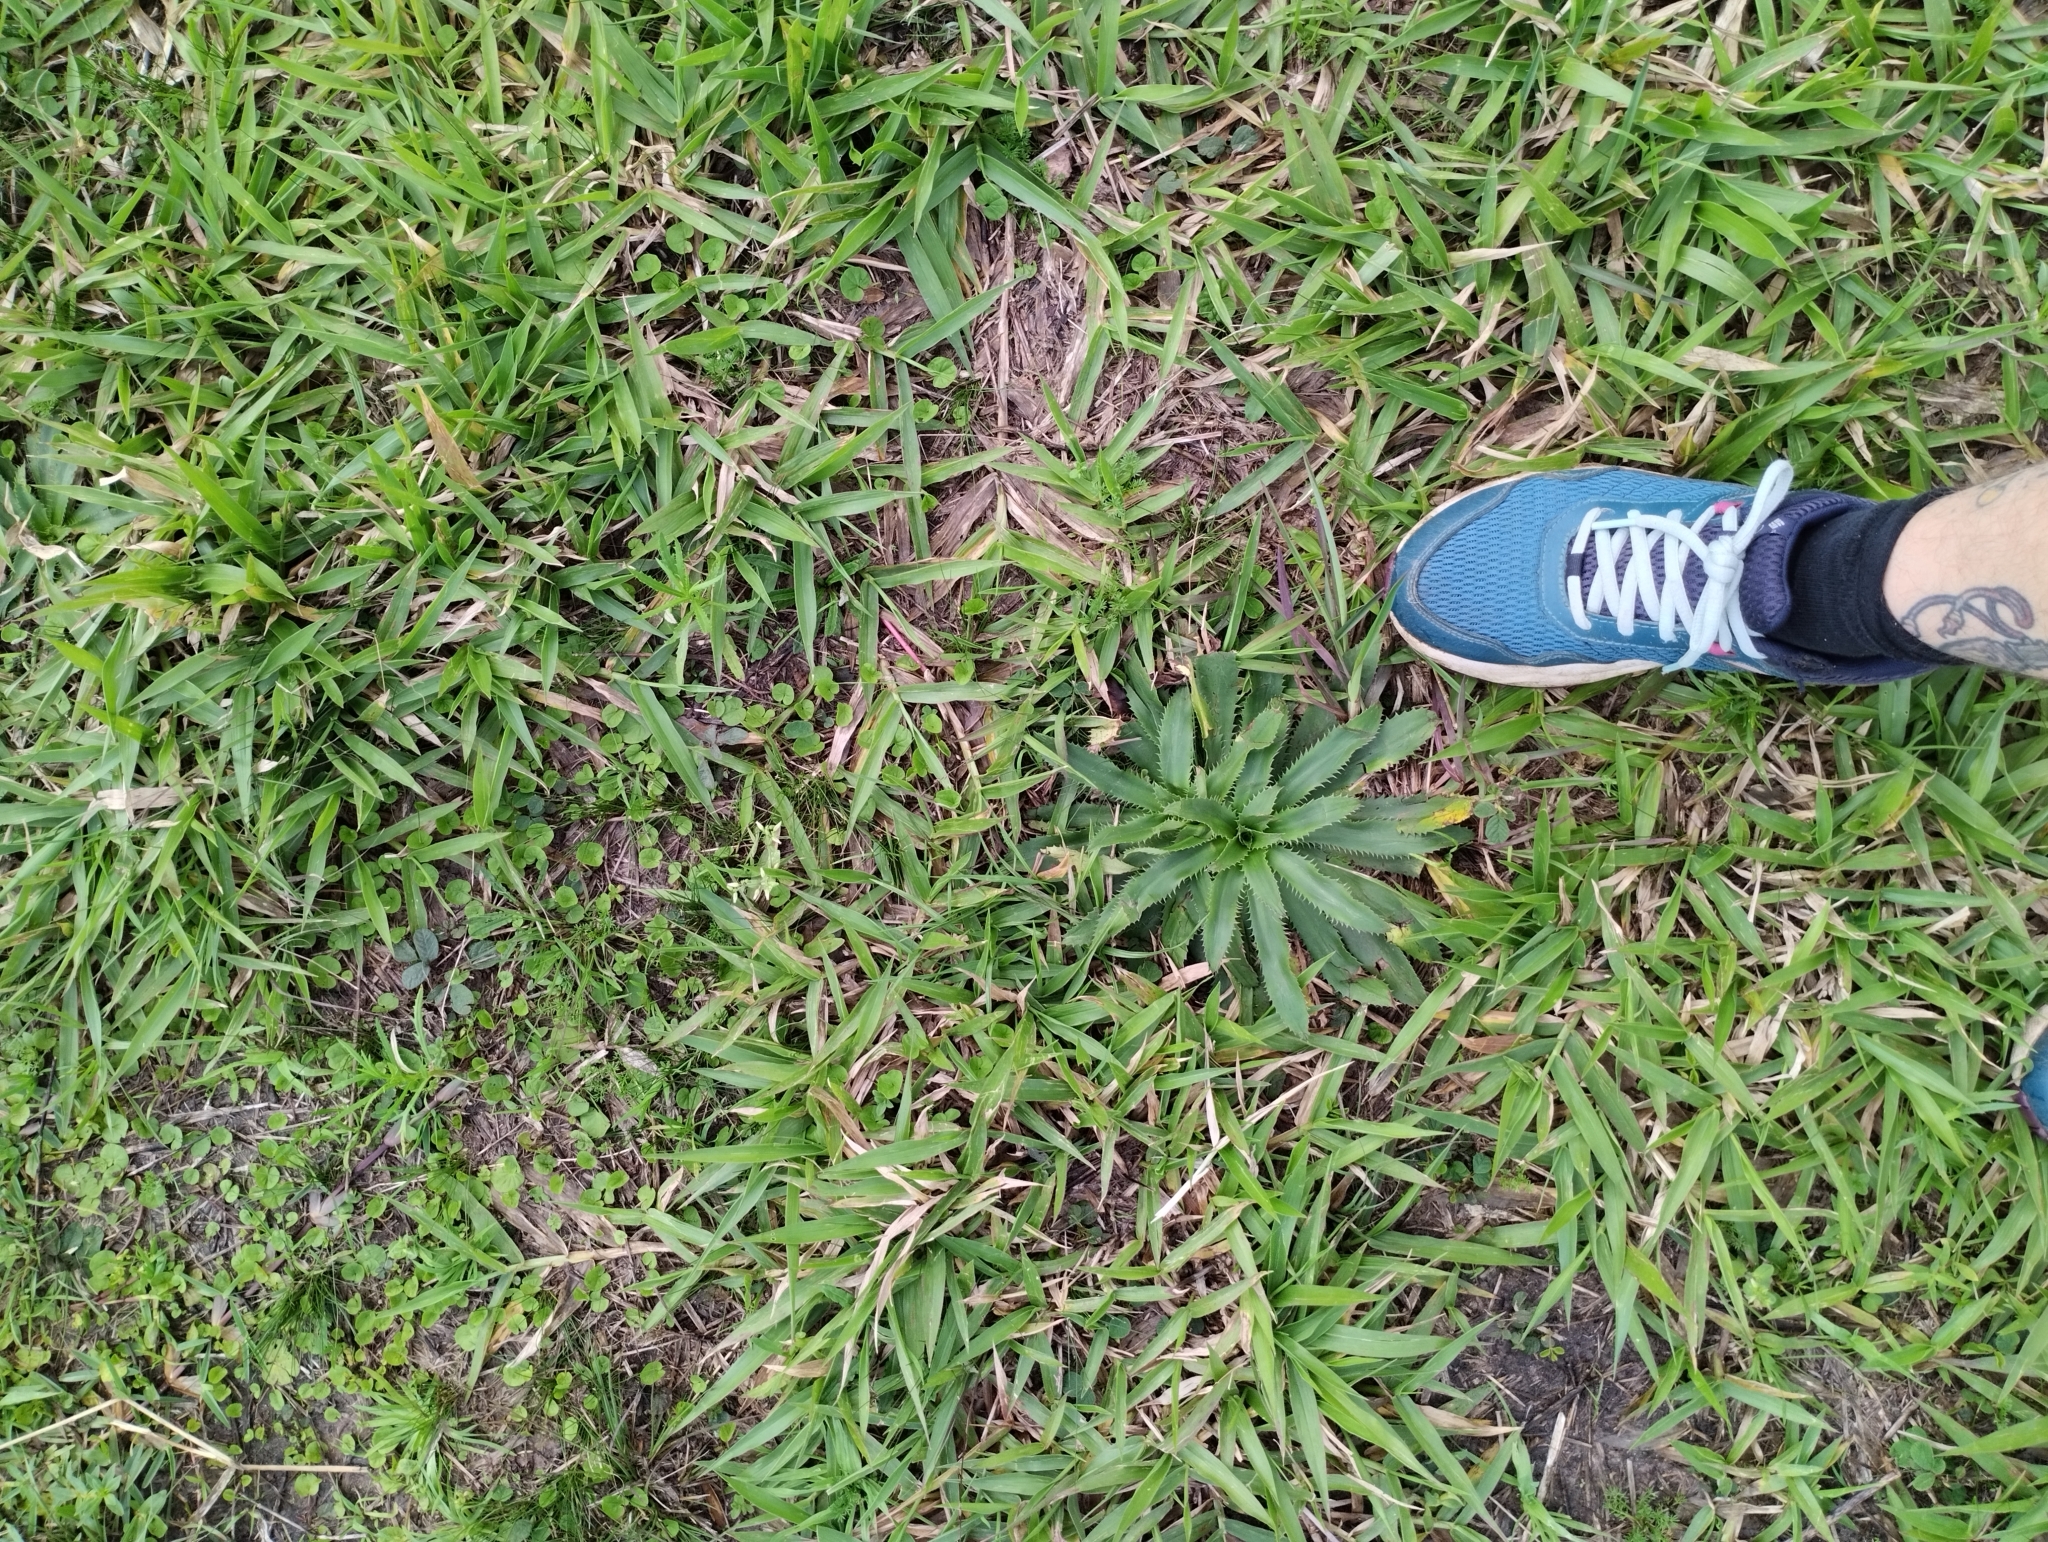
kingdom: Plantae
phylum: Tracheophyta
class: Magnoliopsida
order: Apiales
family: Apiaceae
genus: Eryngium
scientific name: Eryngium elegans
